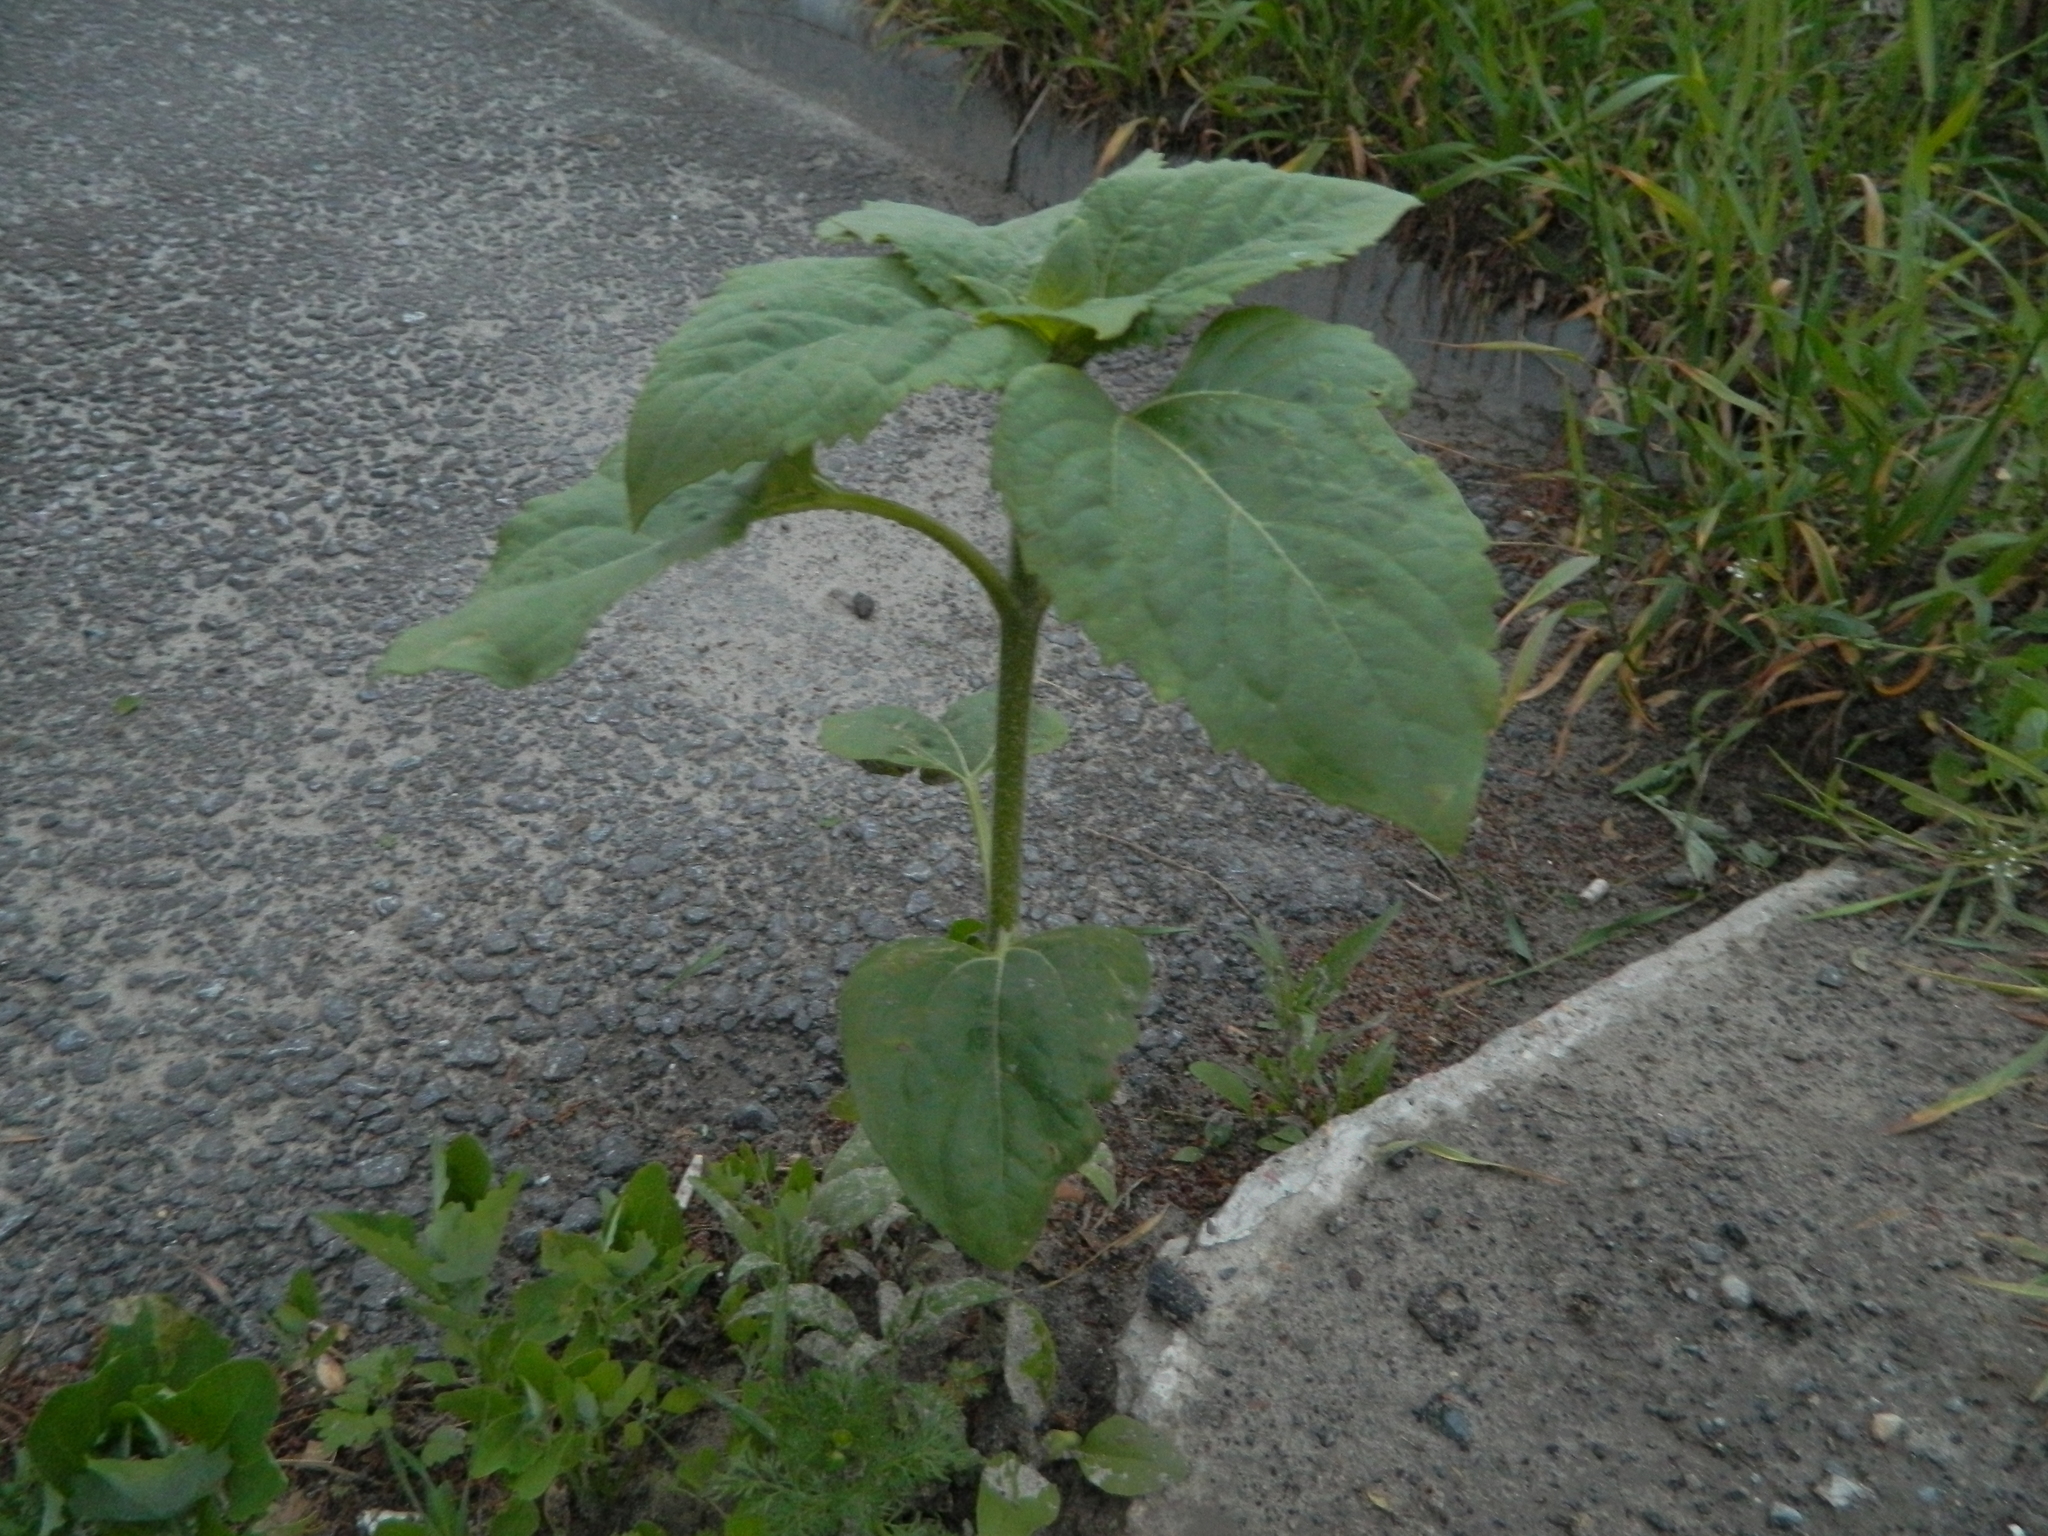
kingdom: Plantae
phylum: Tracheophyta
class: Magnoliopsida
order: Asterales
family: Asteraceae
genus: Helianthus
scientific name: Helianthus annuus
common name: Sunflower
